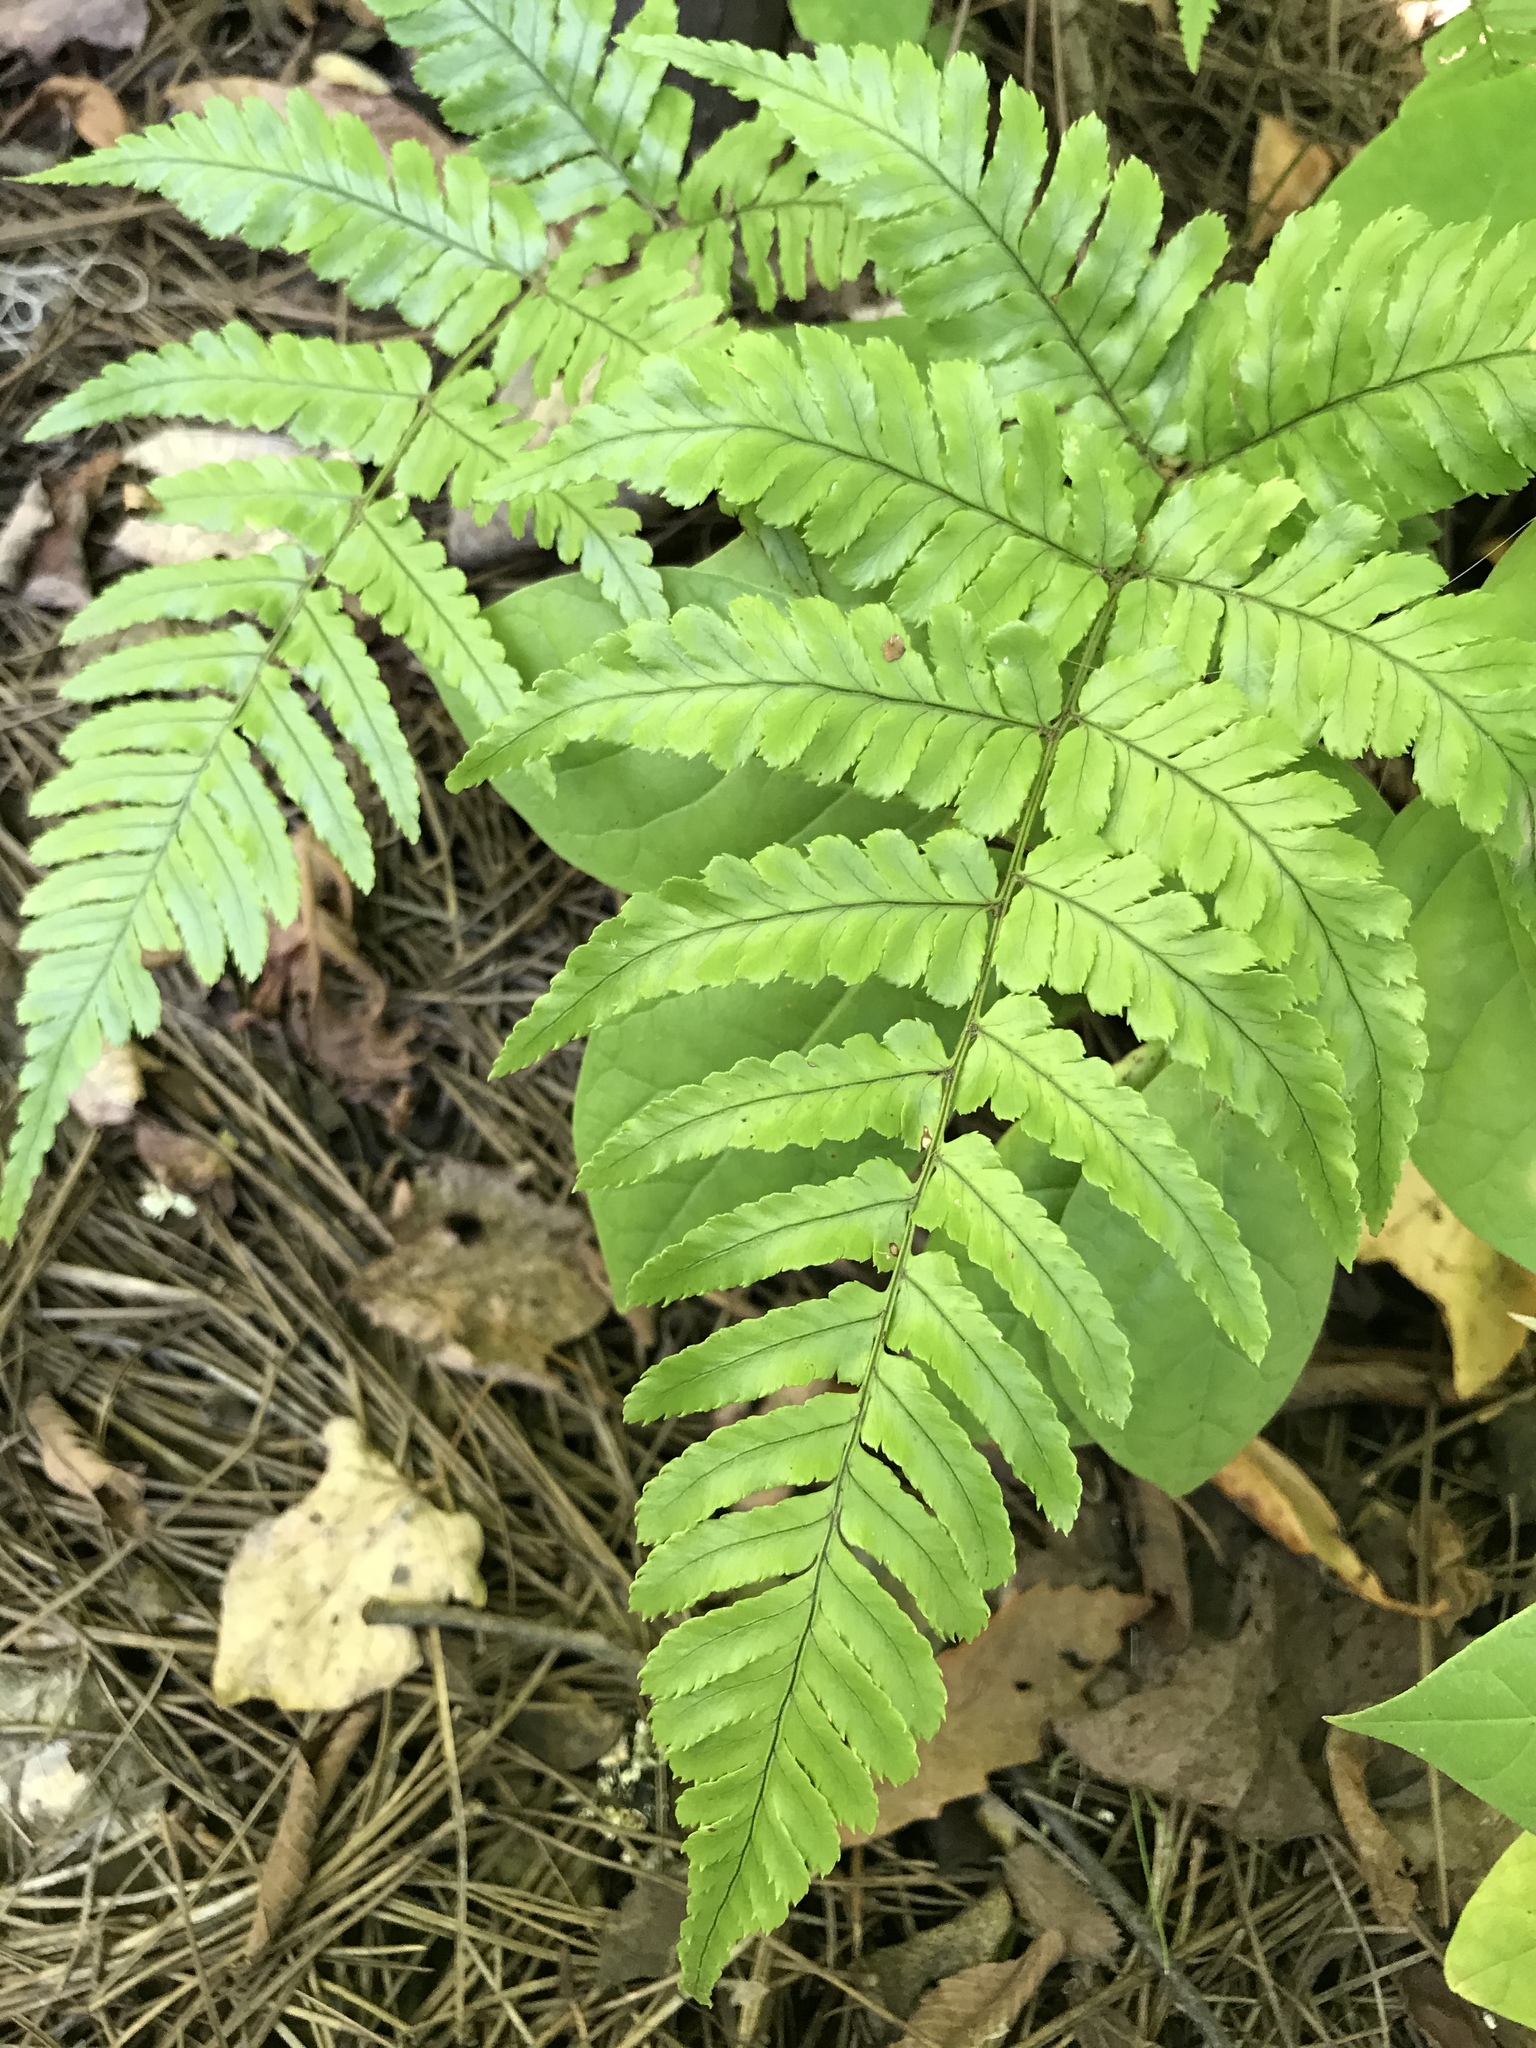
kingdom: Plantae
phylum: Tracheophyta
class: Polypodiopsida
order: Polypodiales
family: Dryopteridaceae
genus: Dryopteris
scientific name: Dryopteris erythrosora
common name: Autumn fern
